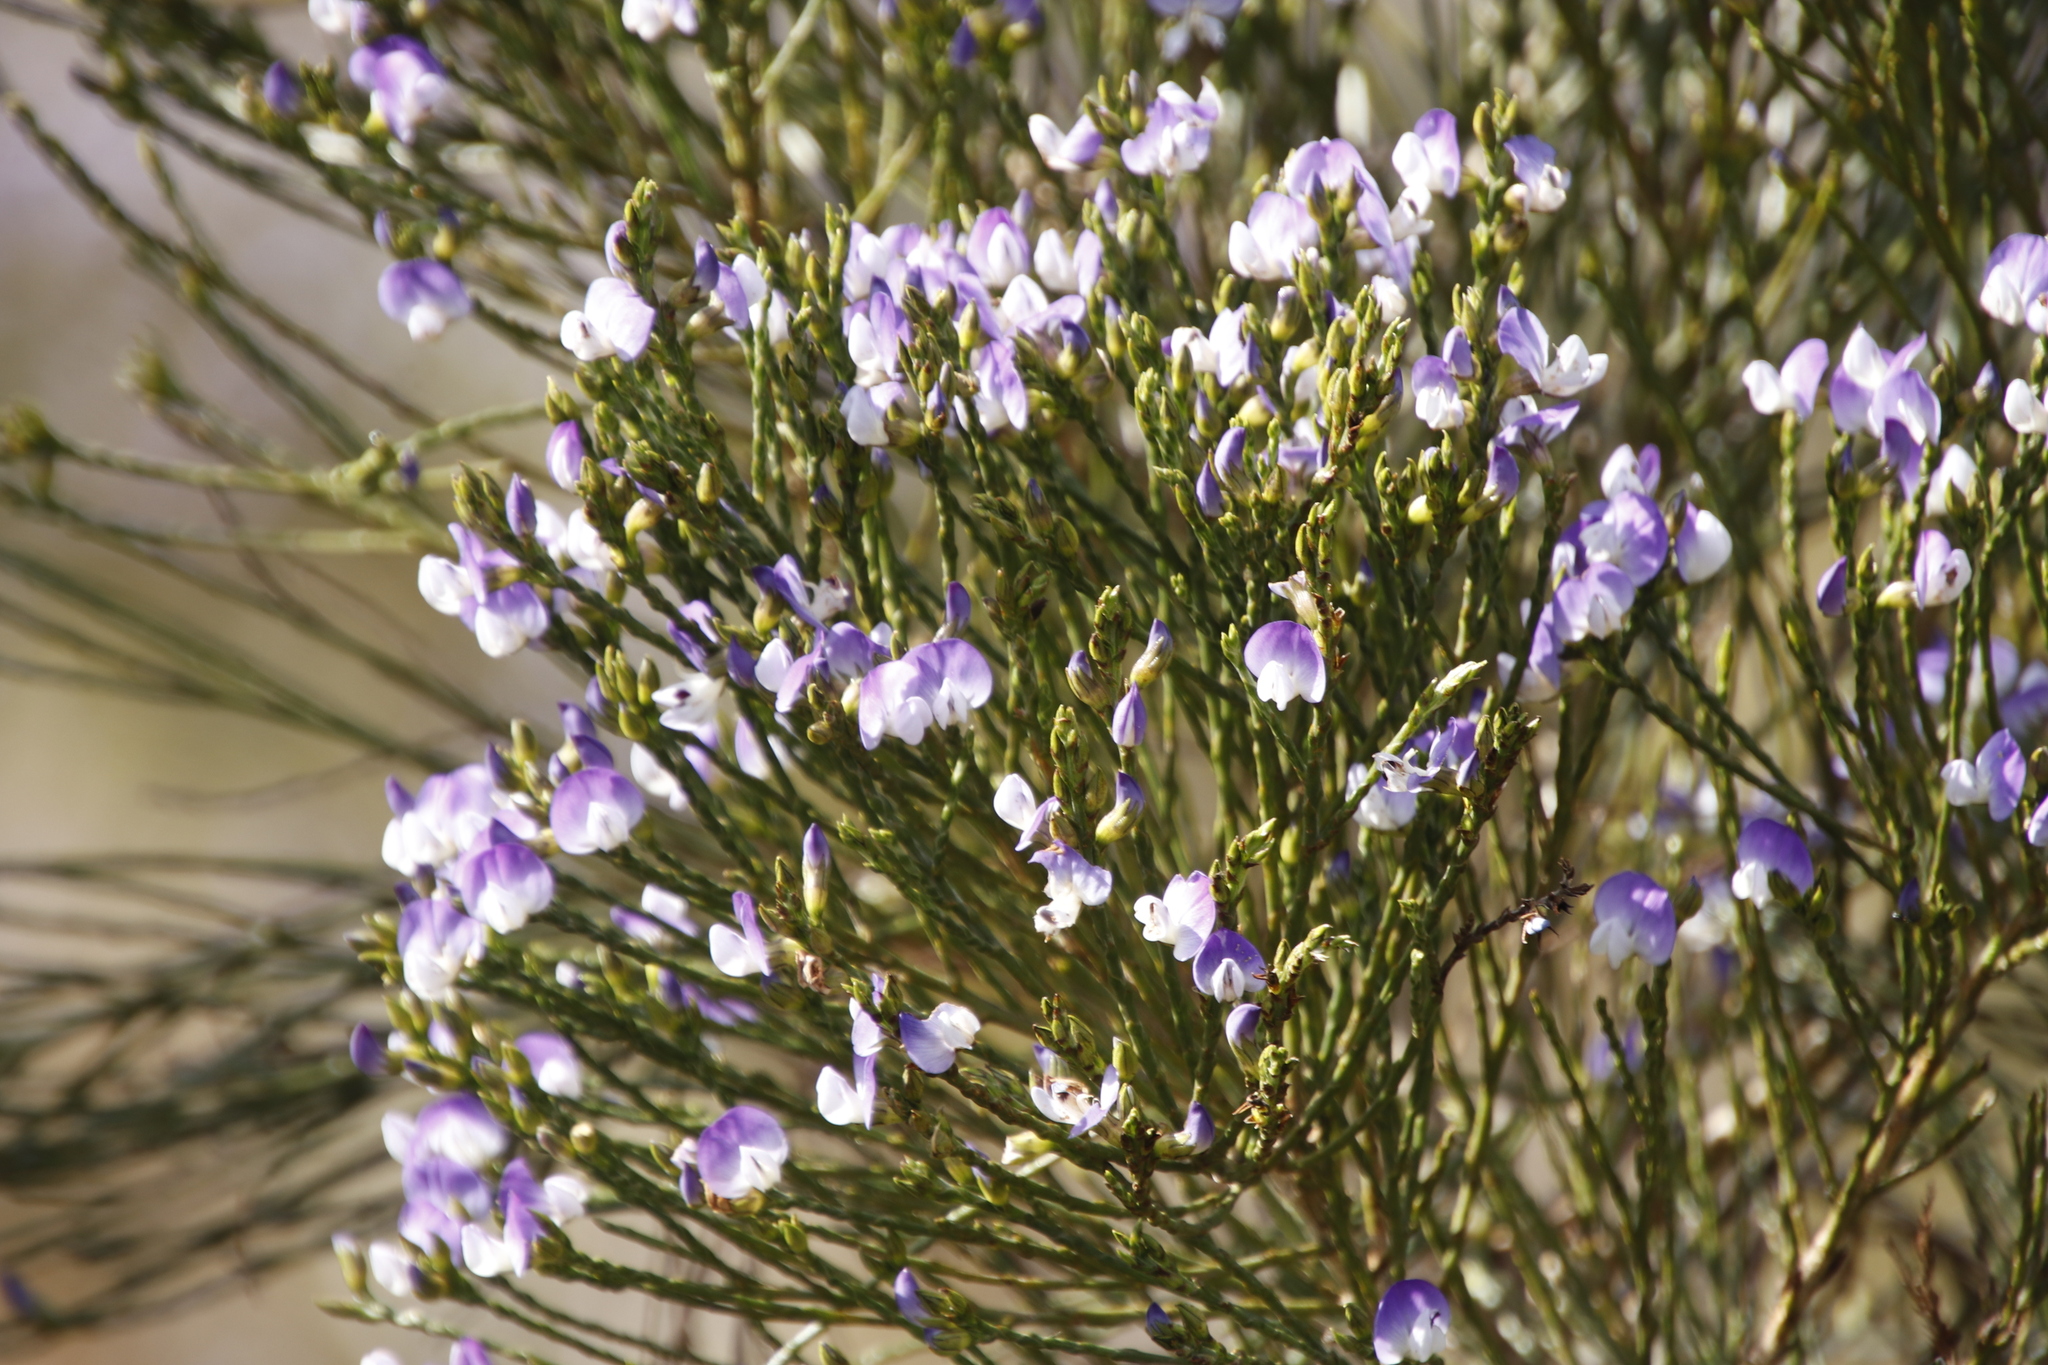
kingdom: Plantae
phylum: Tracheophyta
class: Magnoliopsida
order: Fabales
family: Fabaceae
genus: Psoralea
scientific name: Psoralea congesta
